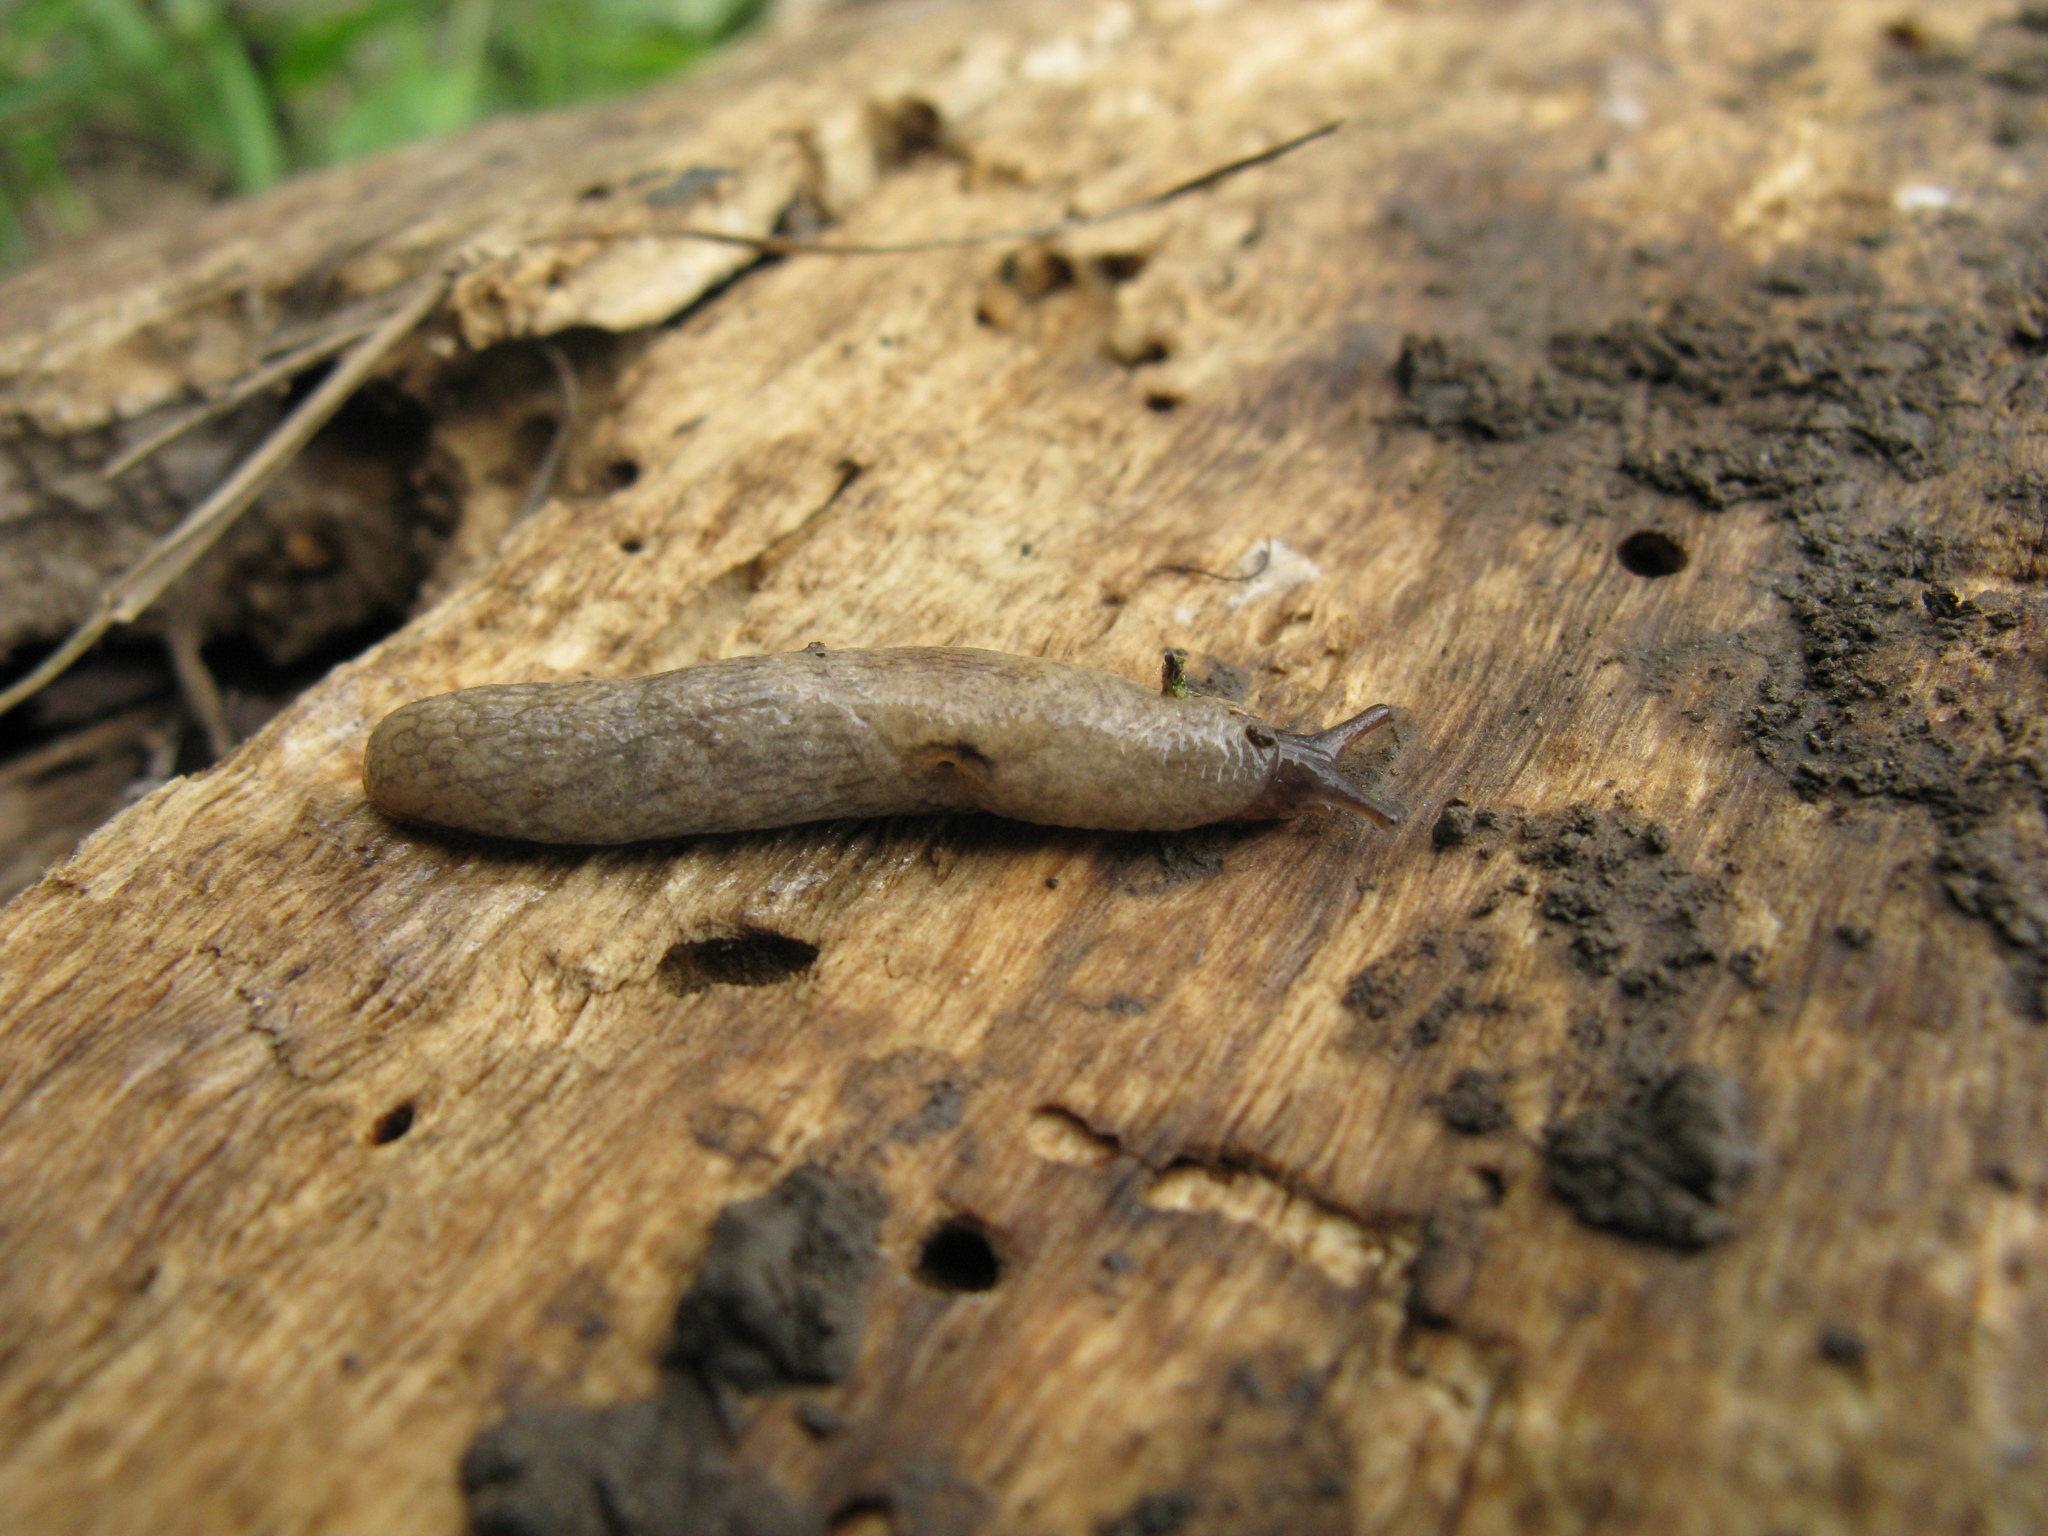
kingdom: Animalia
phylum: Mollusca
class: Gastropoda
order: Stylommatophora
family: Agriolimacidae
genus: Deroceras
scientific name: Deroceras subagreste
